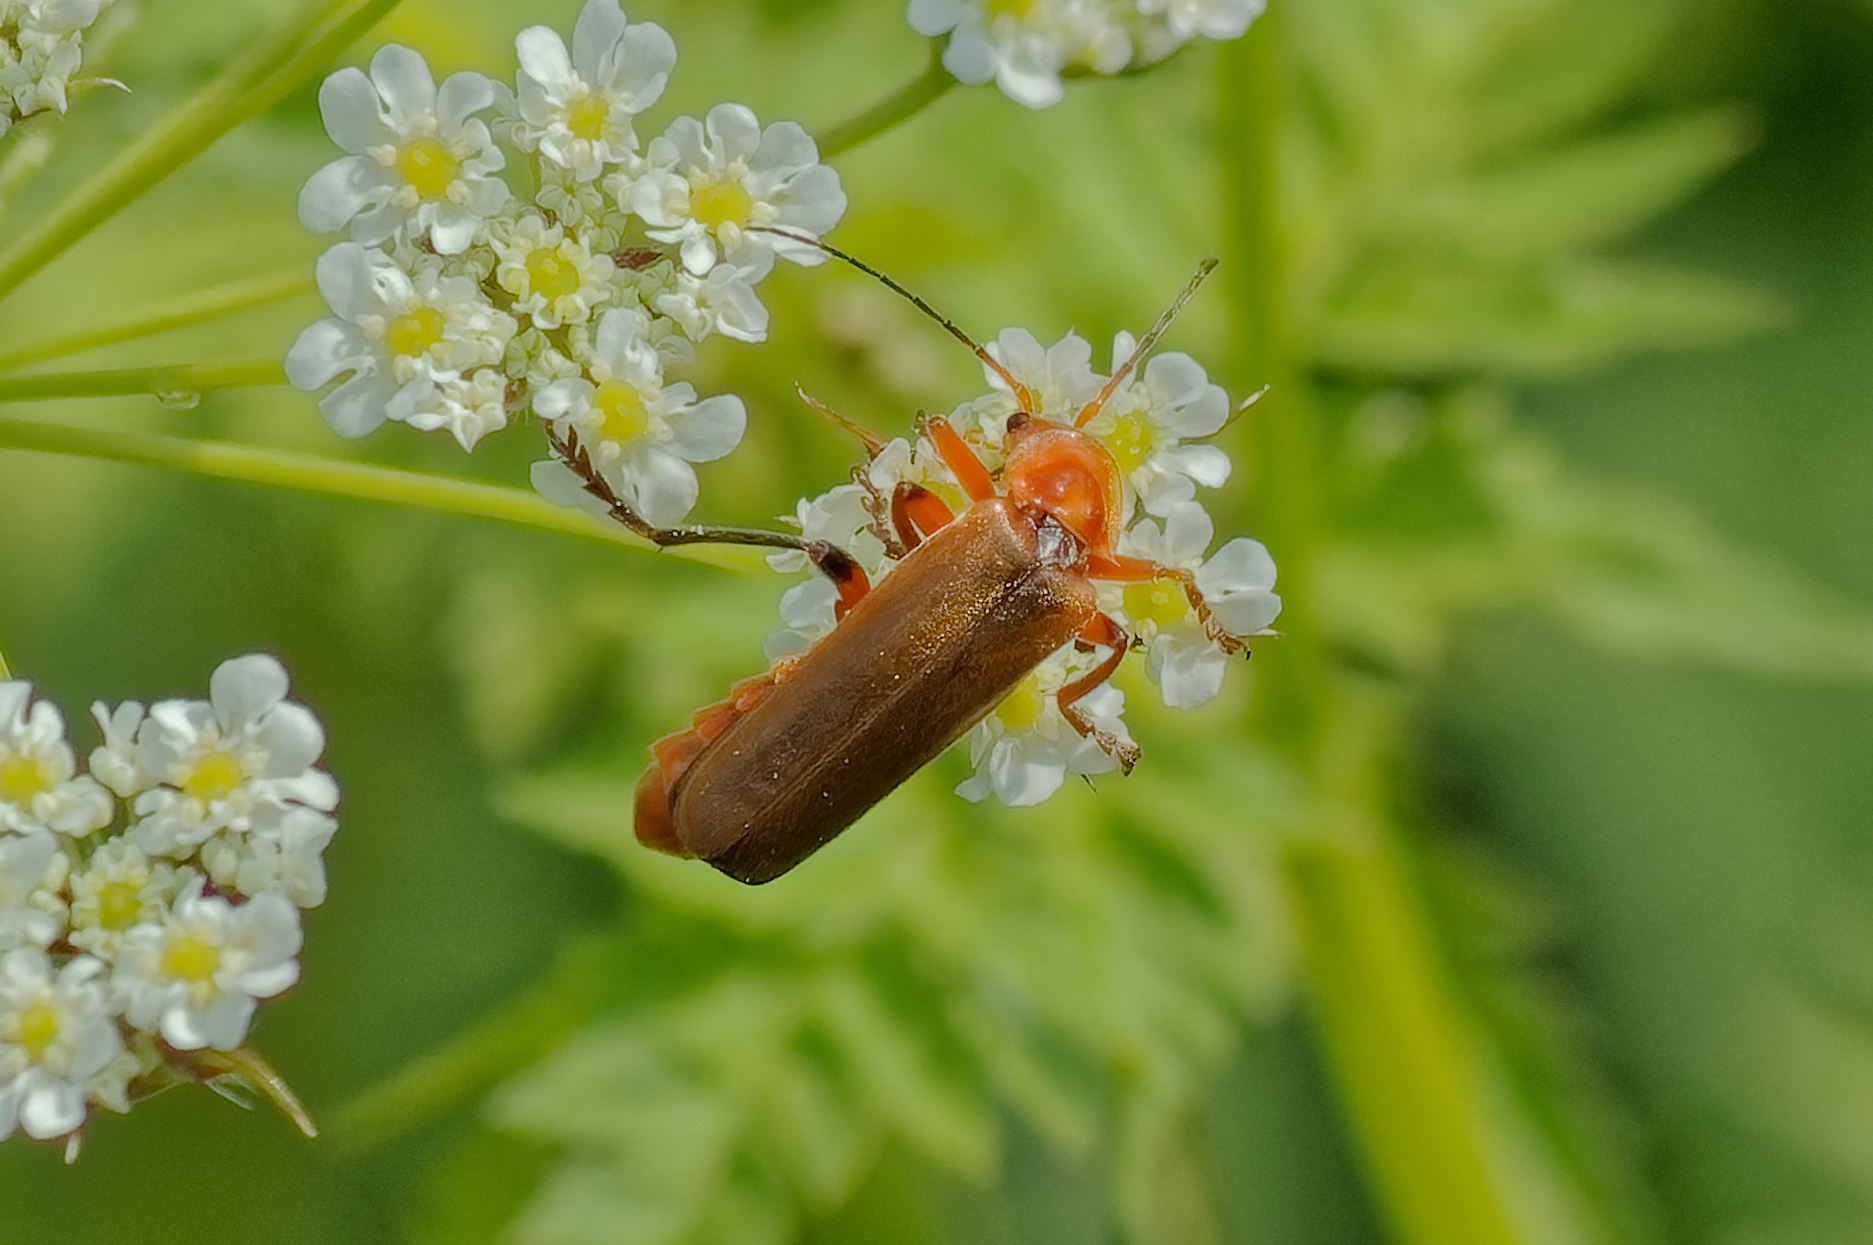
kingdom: Animalia
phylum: Arthropoda
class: Insecta
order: Coleoptera
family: Cantharidae
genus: Cantharis
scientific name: Cantharis livida
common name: Livid soldier beetle
